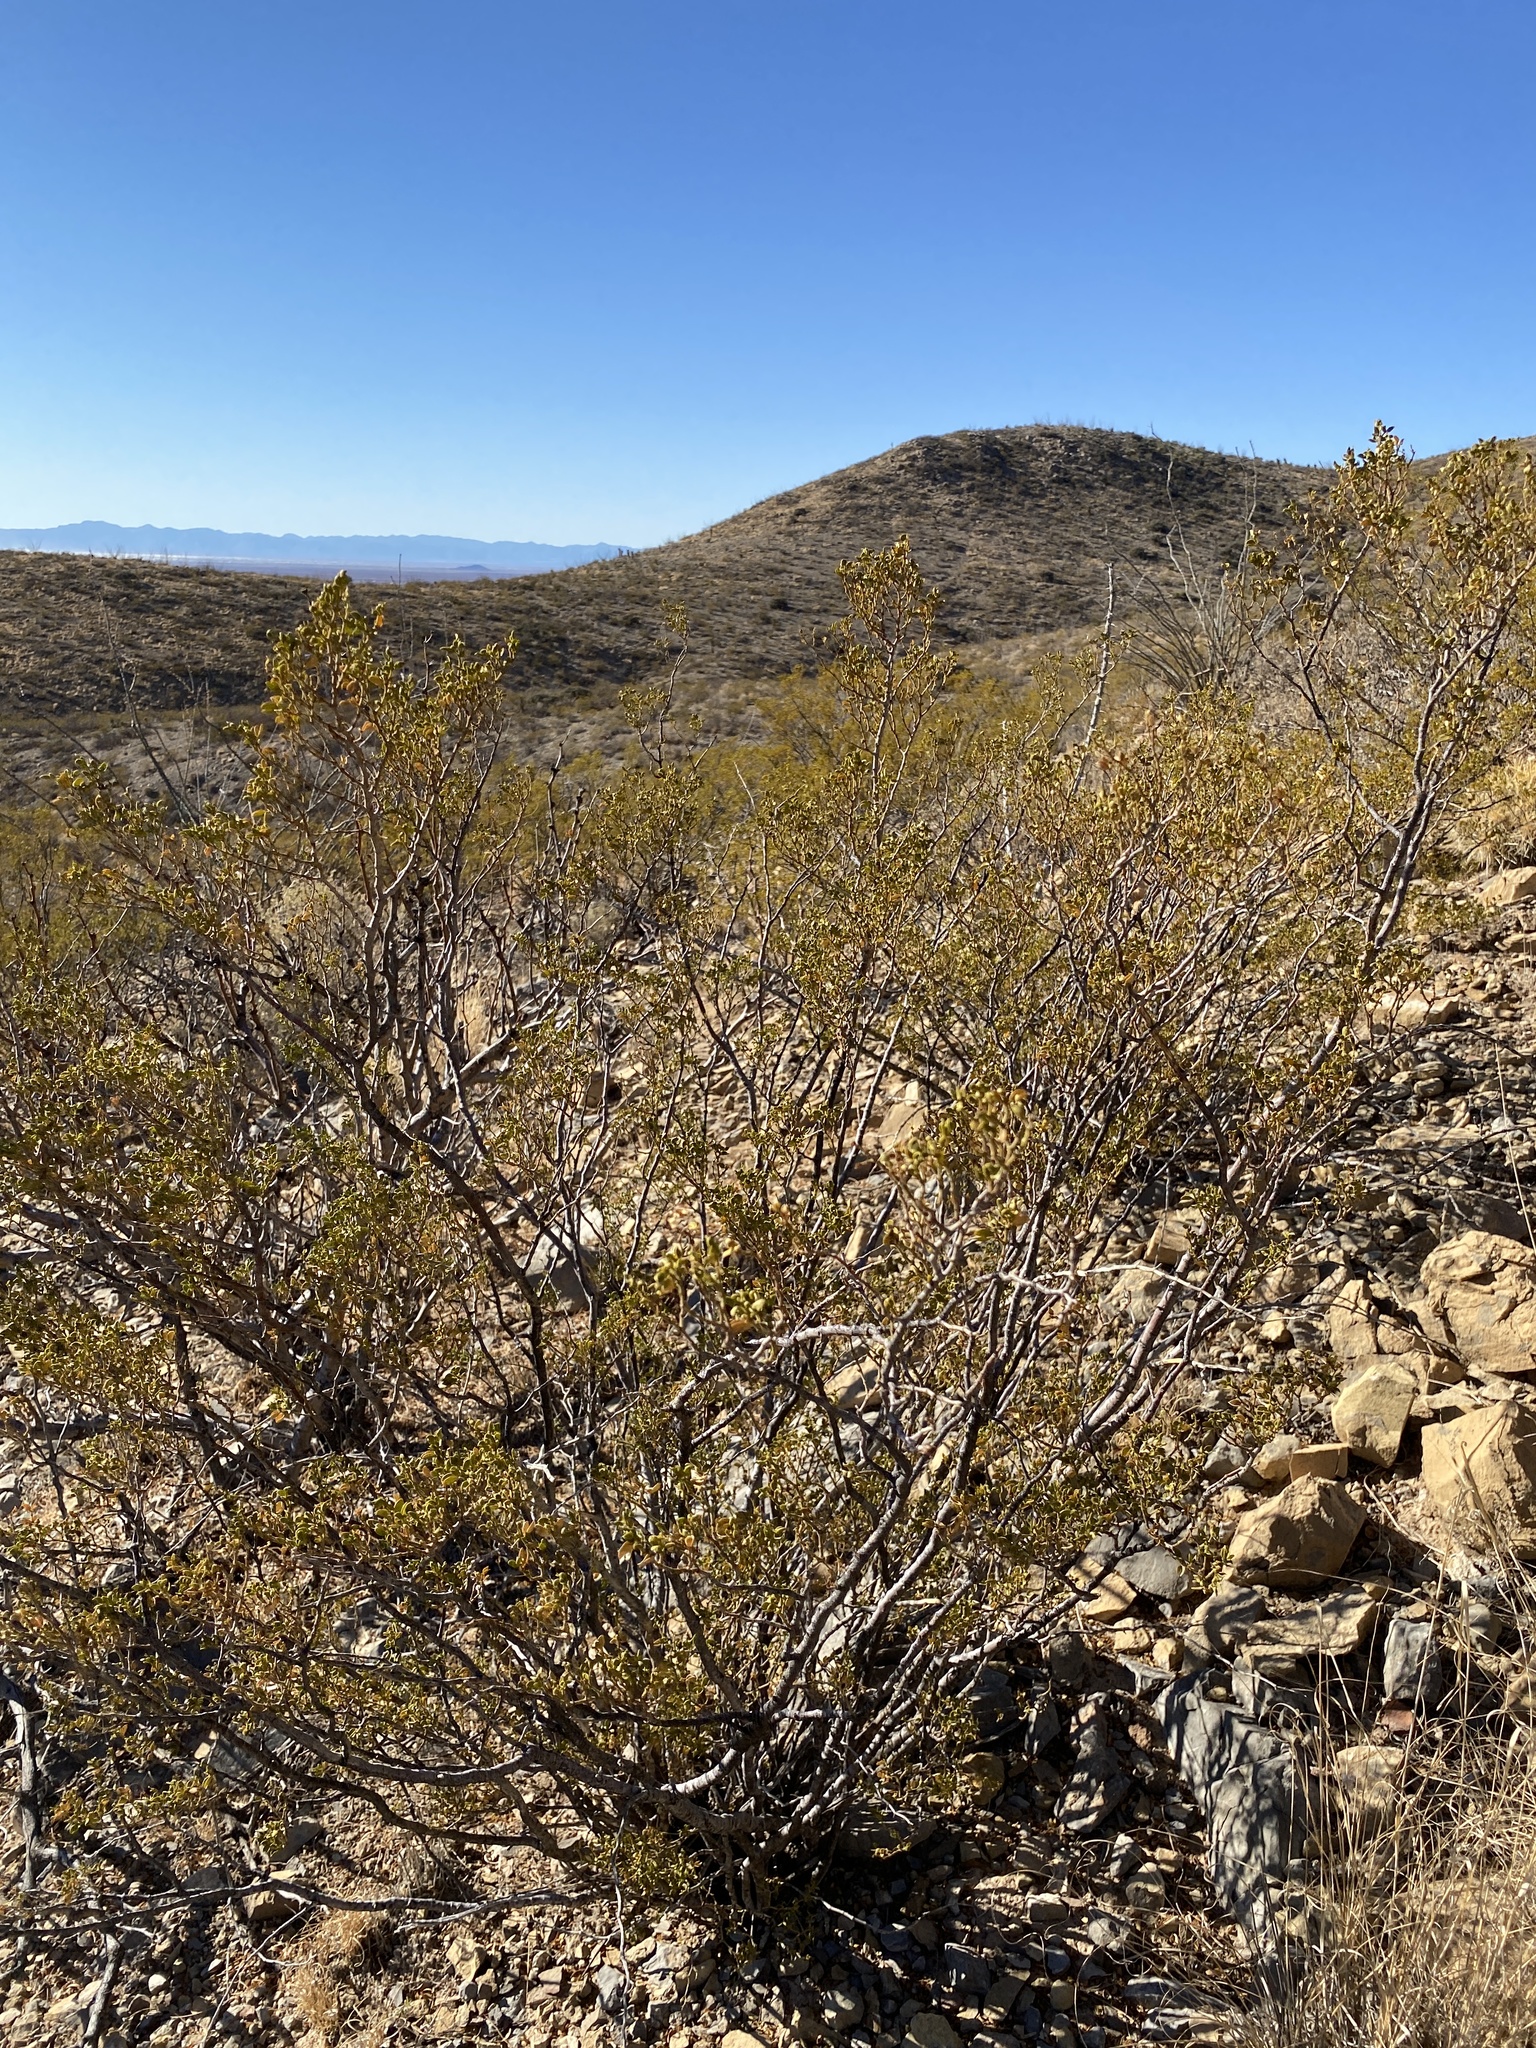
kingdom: Plantae
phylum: Tracheophyta
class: Magnoliopsida
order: Zygophyllales
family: Zygophyllaceae
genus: Larrea
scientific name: Larrea tridentata
